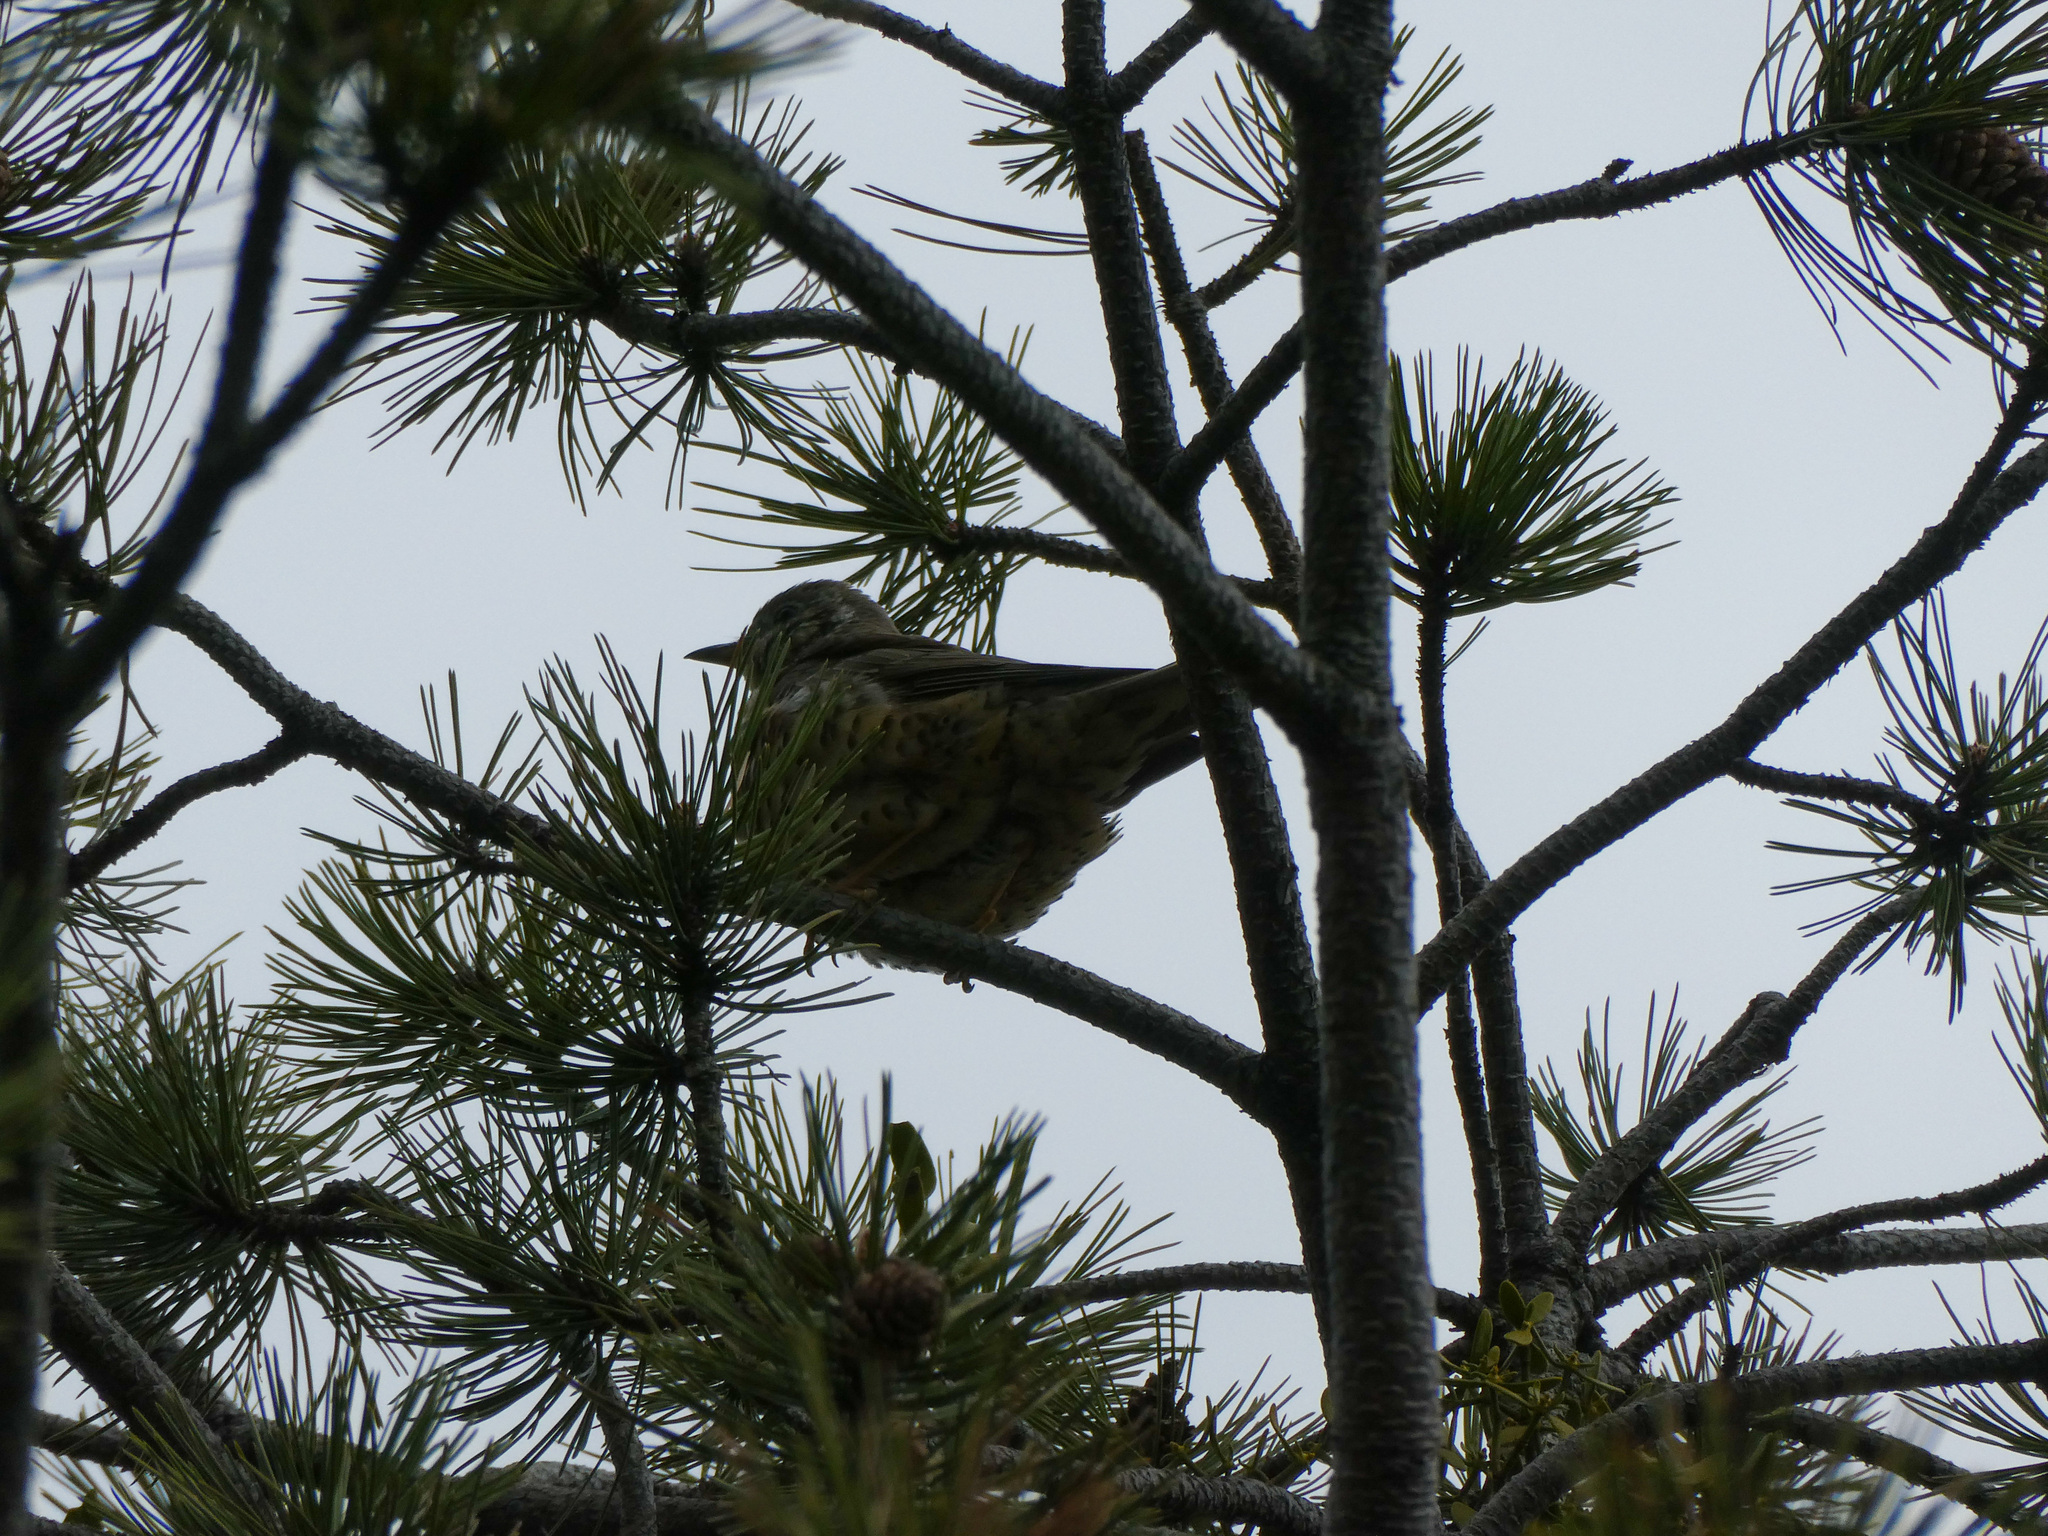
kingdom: Animalia
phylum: Chordata
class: Aves
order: Passeriformes
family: Turdidae
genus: Turdus
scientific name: Turdus viscivorus
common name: Mistle thrush
